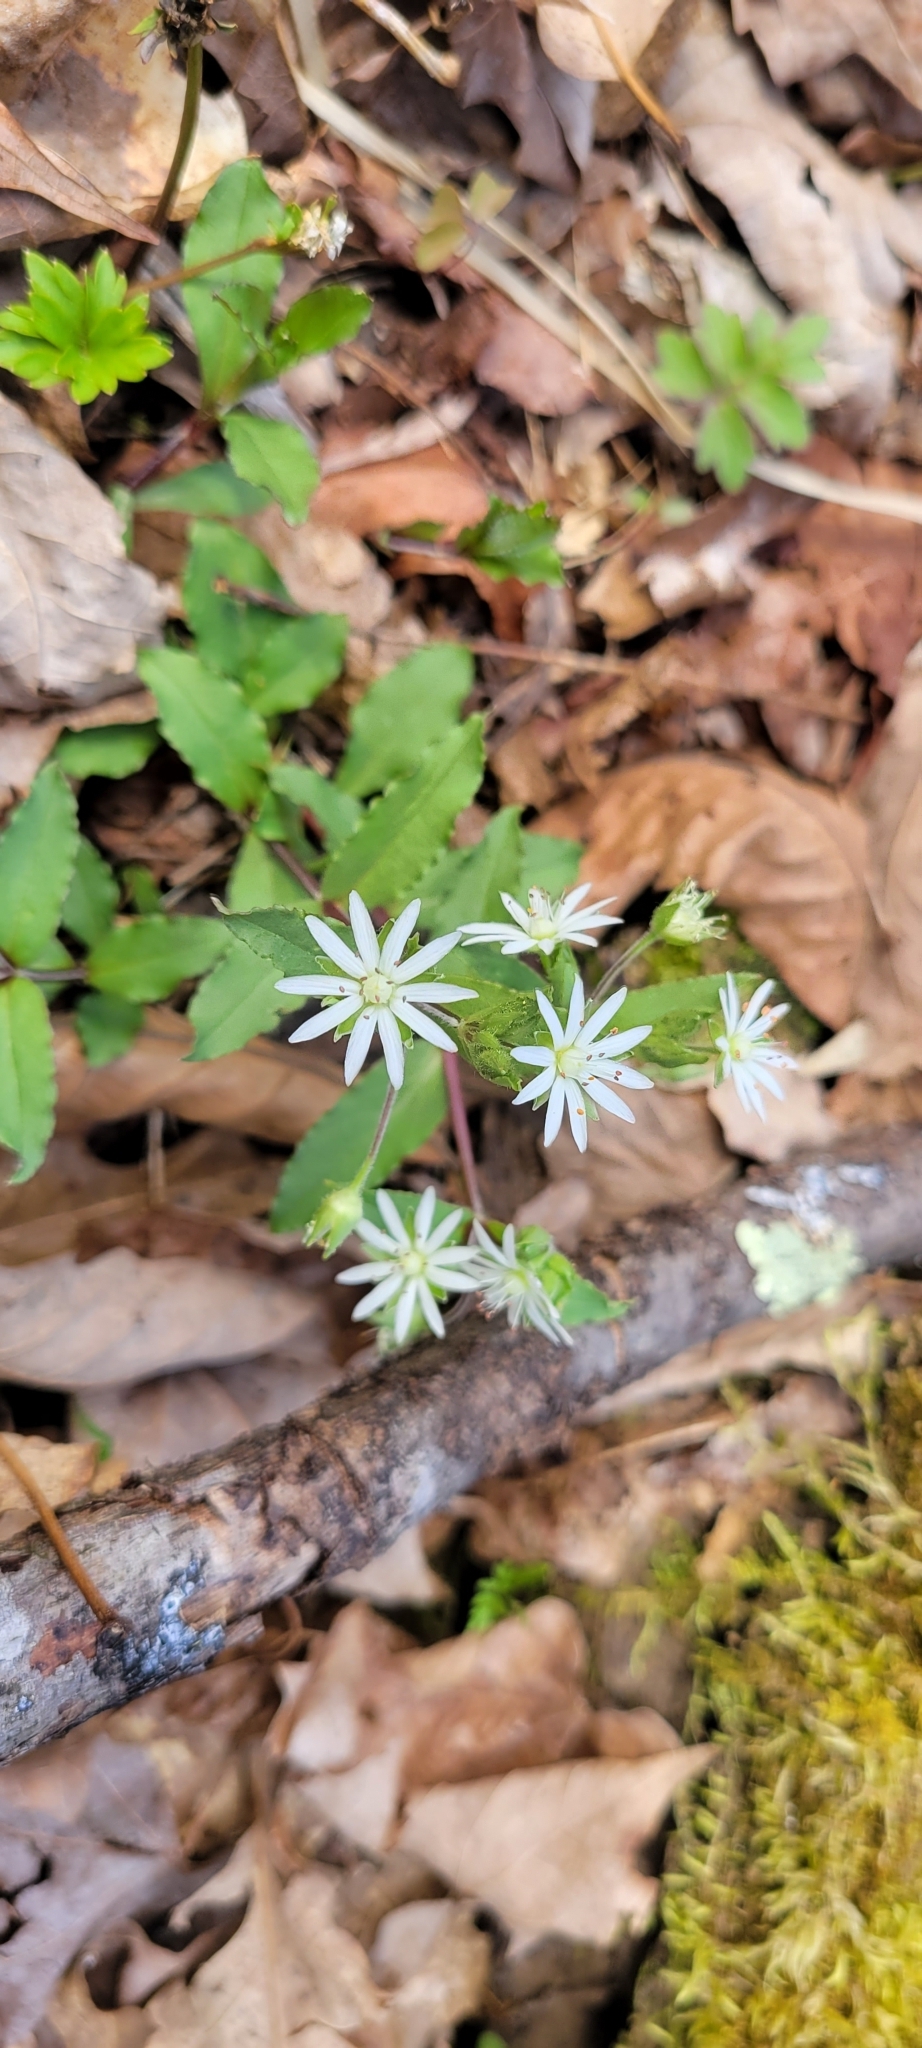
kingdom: Plantae
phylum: Tracheophyta
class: Magnoliopsida
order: Caryophyllales
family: Caryophyllaceae
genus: Stellaria
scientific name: Stellaria pubera
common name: Star chickweed
